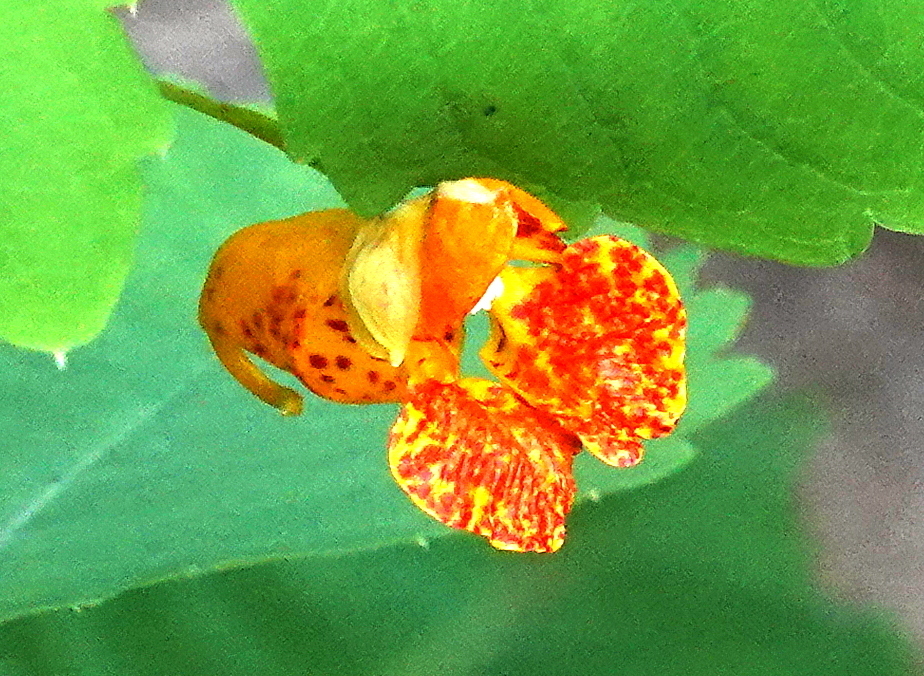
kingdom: Plantae
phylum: Tracheophyta
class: Magnoliopsida
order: Ericales
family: Balsaminaceae
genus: Impatiens
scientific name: Impatiens capensis
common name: Orange balsam
